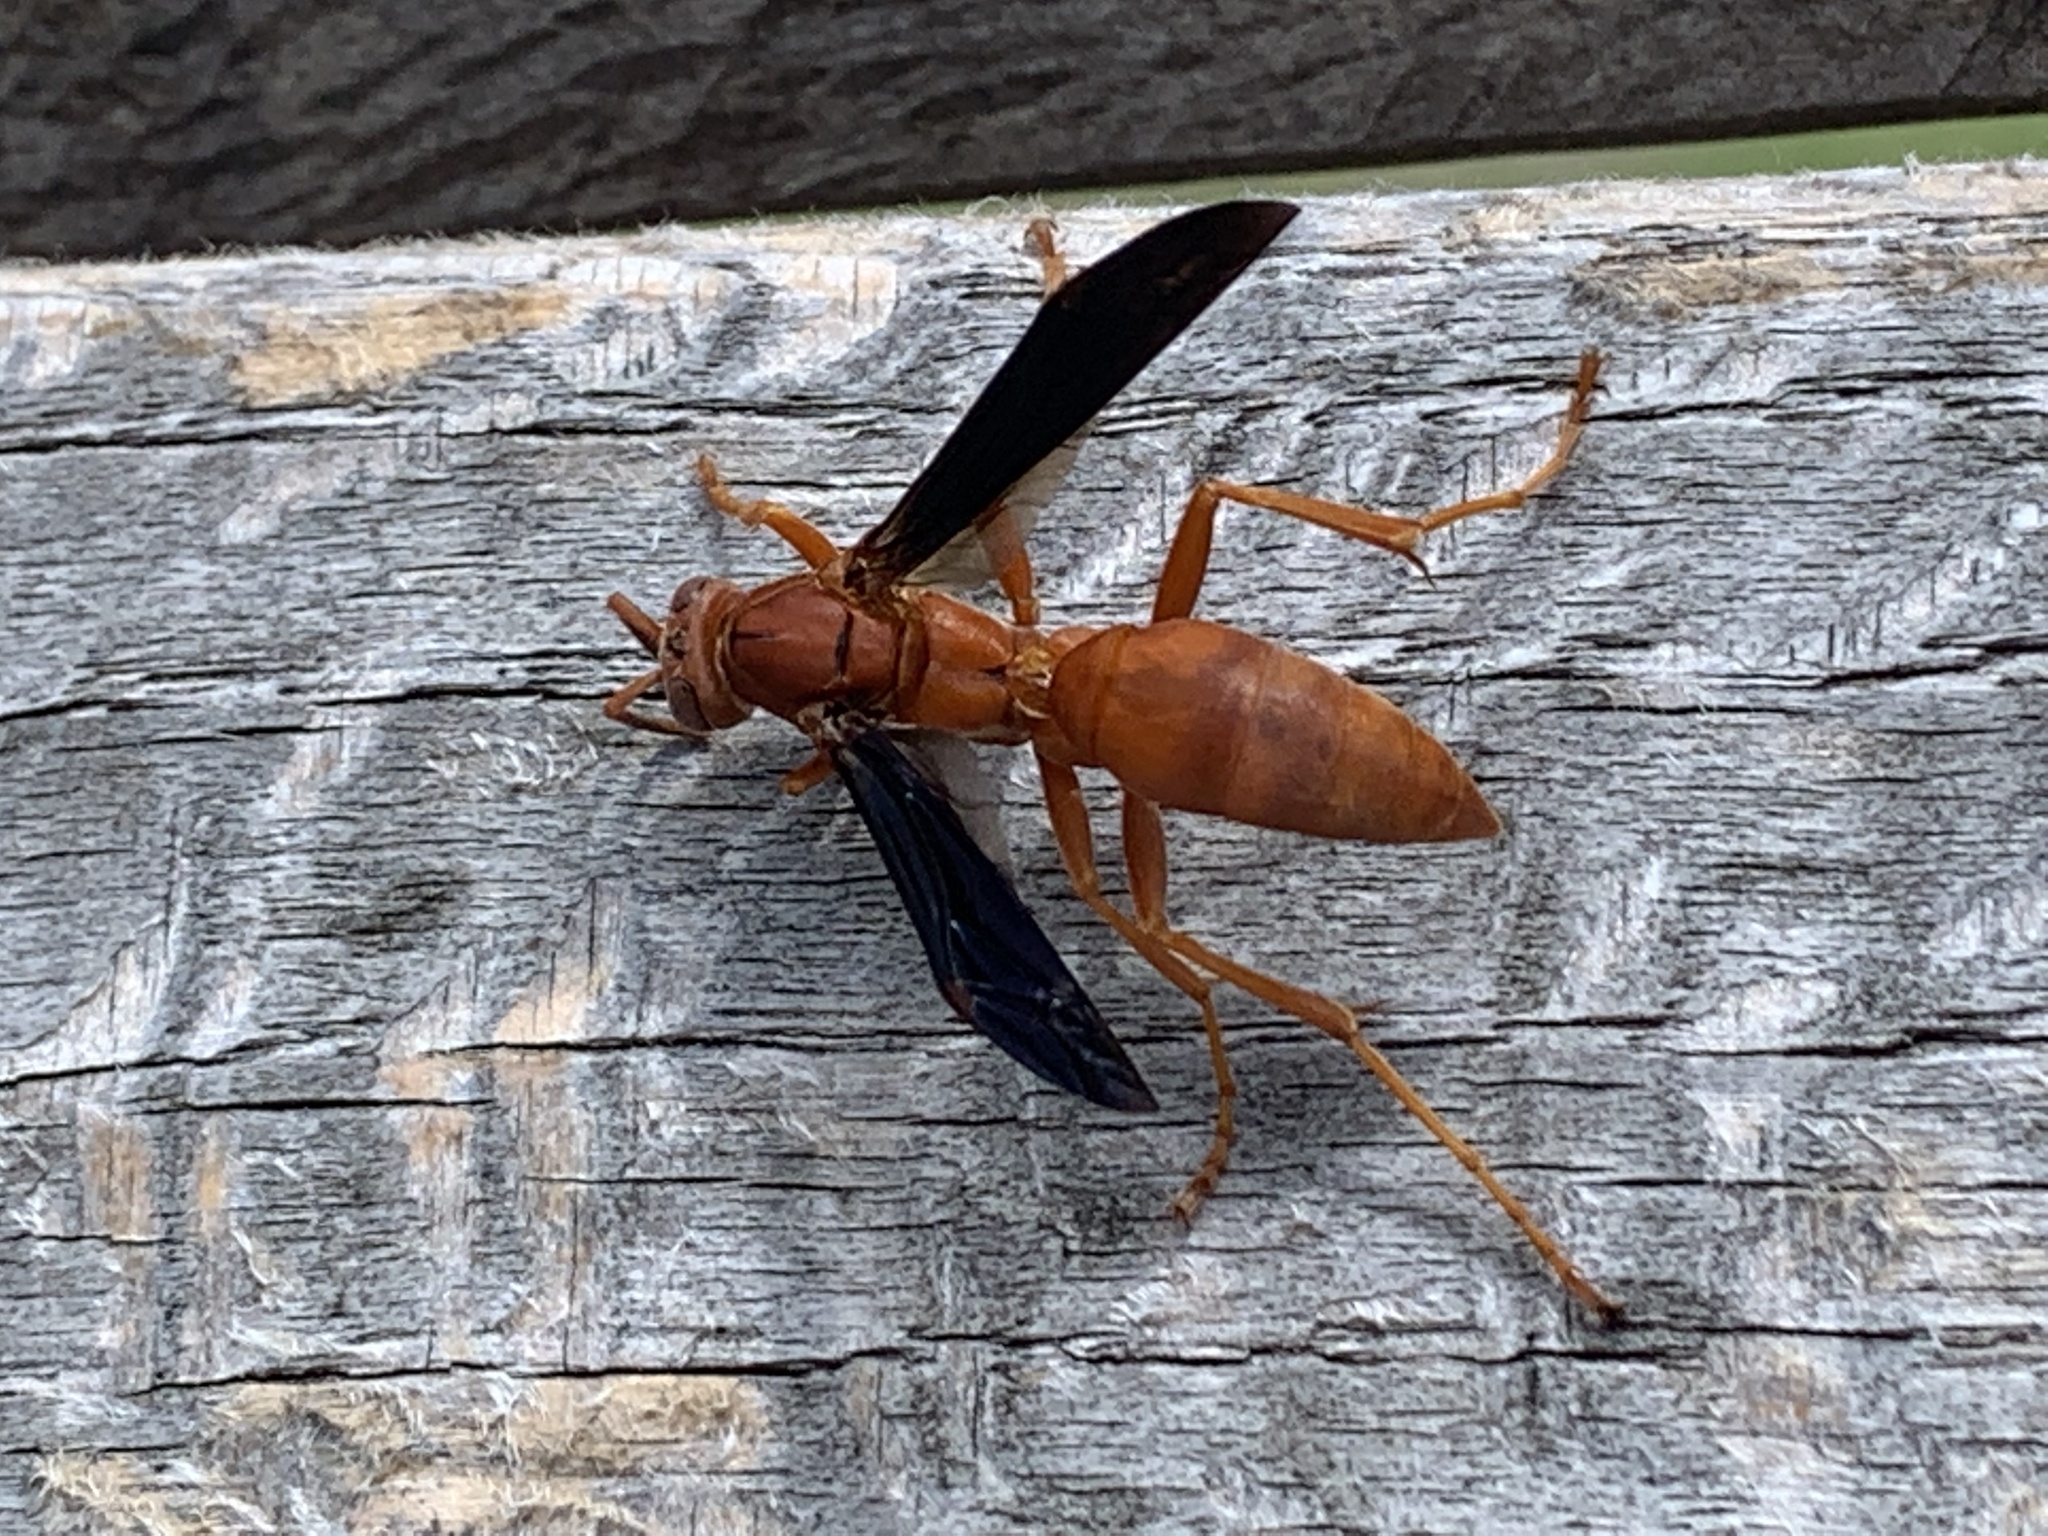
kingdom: Animalia
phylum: Arthropoda
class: Insecta
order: Hymenoptera
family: Eumenidae
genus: Polistes
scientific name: Polistes carolina
